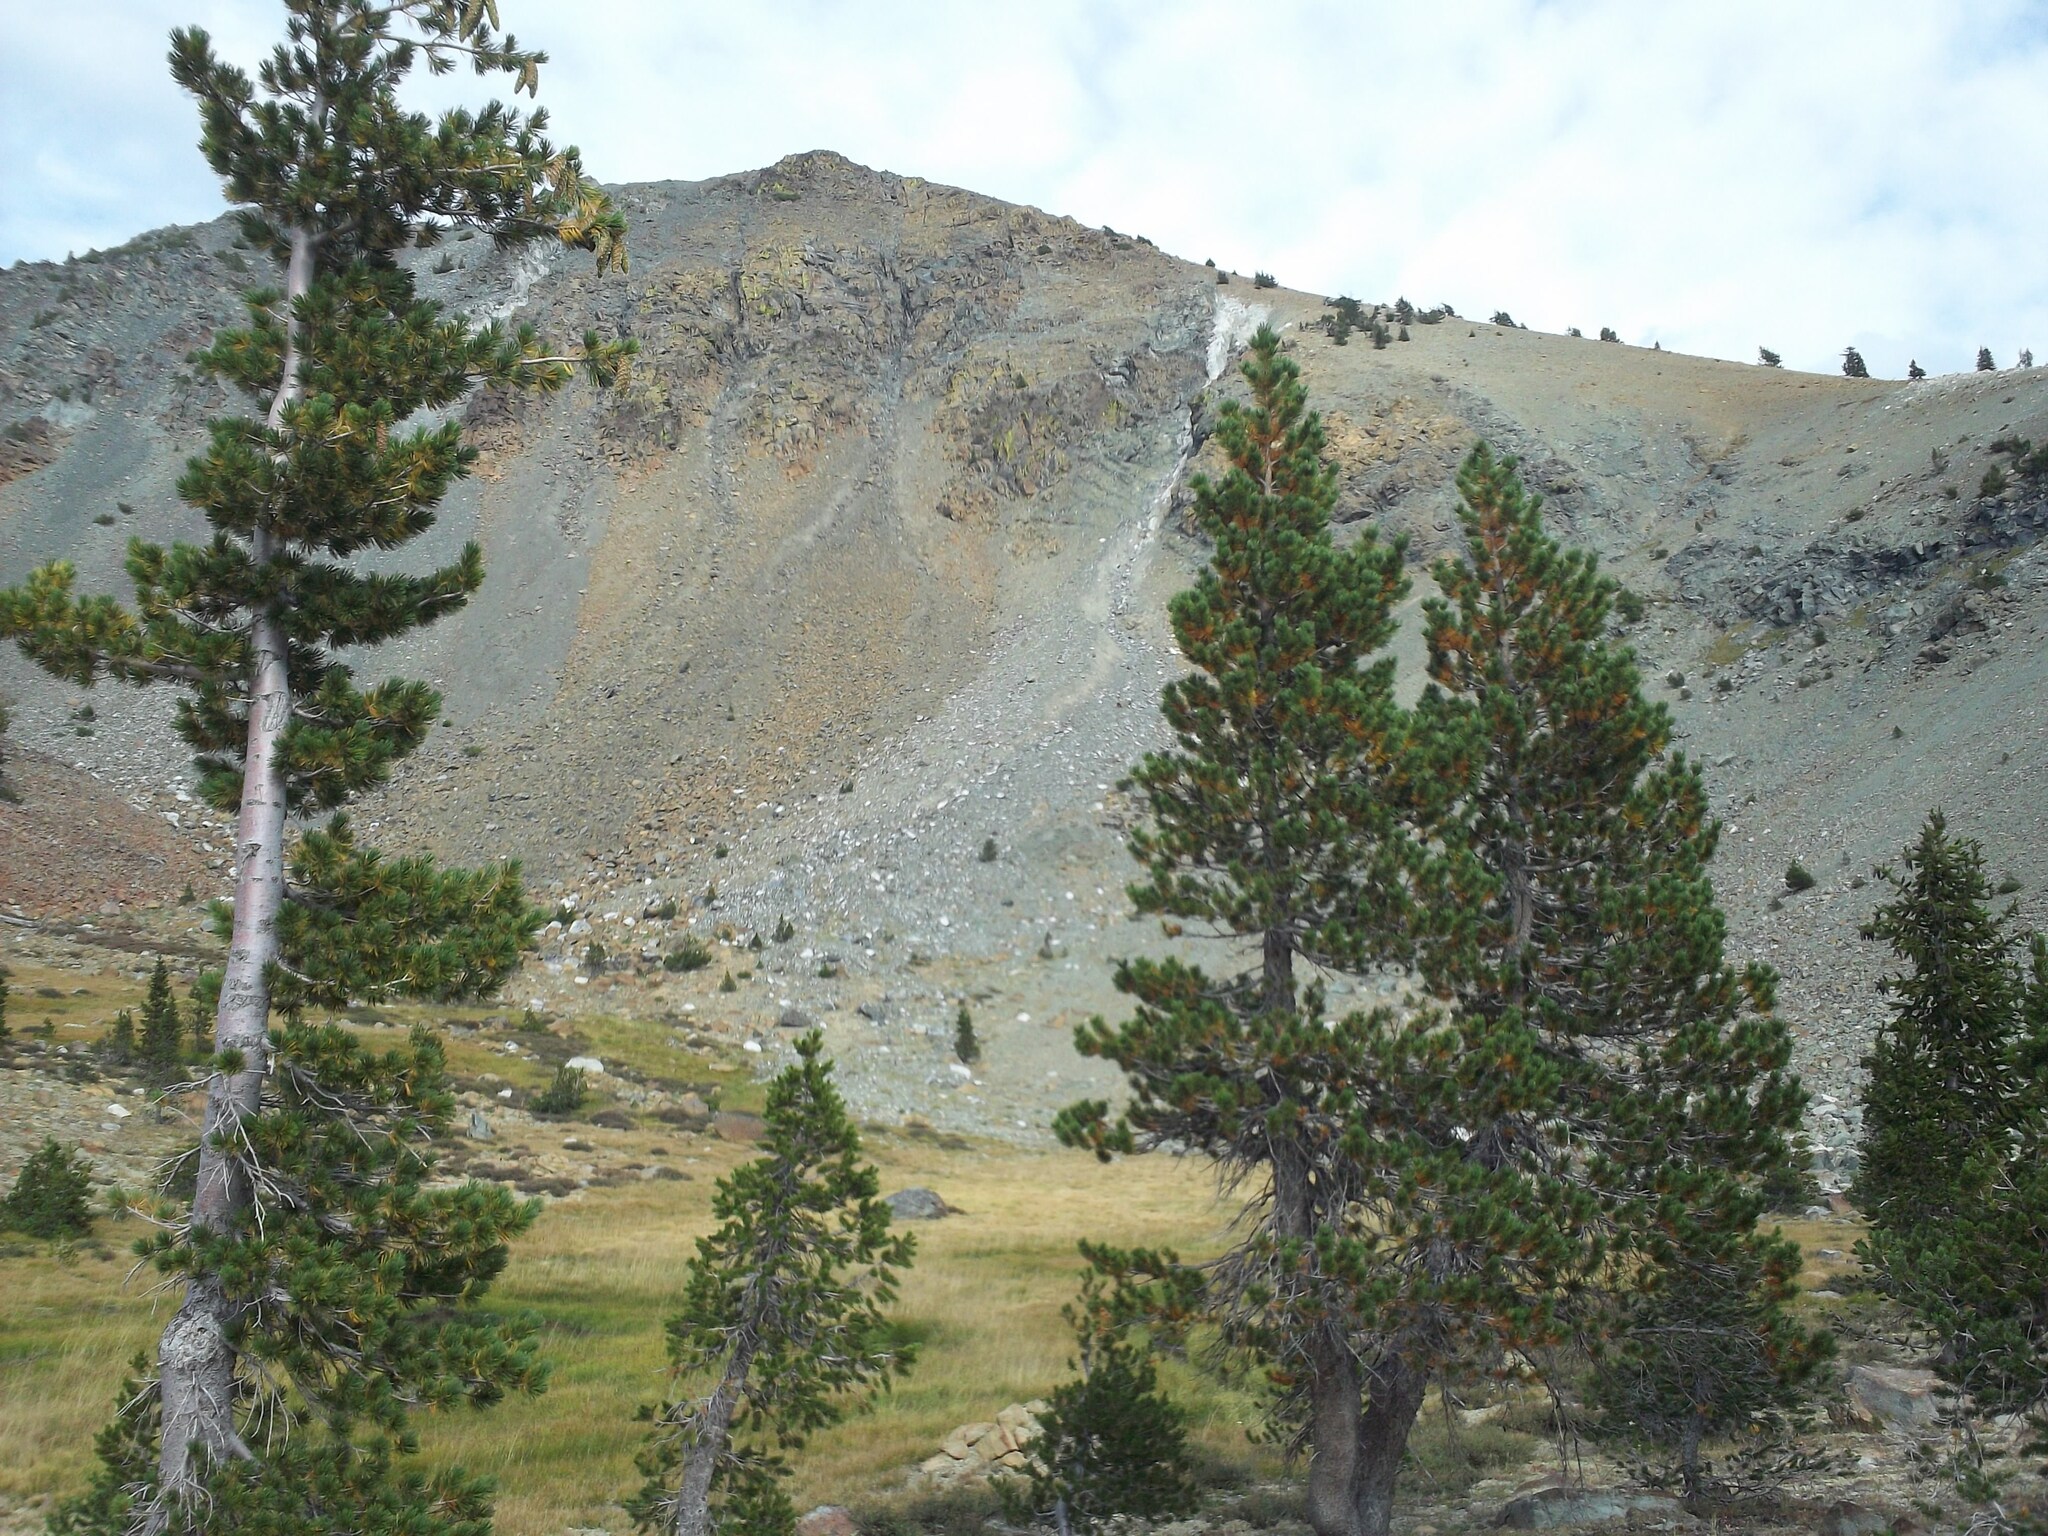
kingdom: Plantae
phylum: Tracheophyta
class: Pinopsida
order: Pinales
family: Pinaceae
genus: Pinus
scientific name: Pinus monticola
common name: Western white pine
